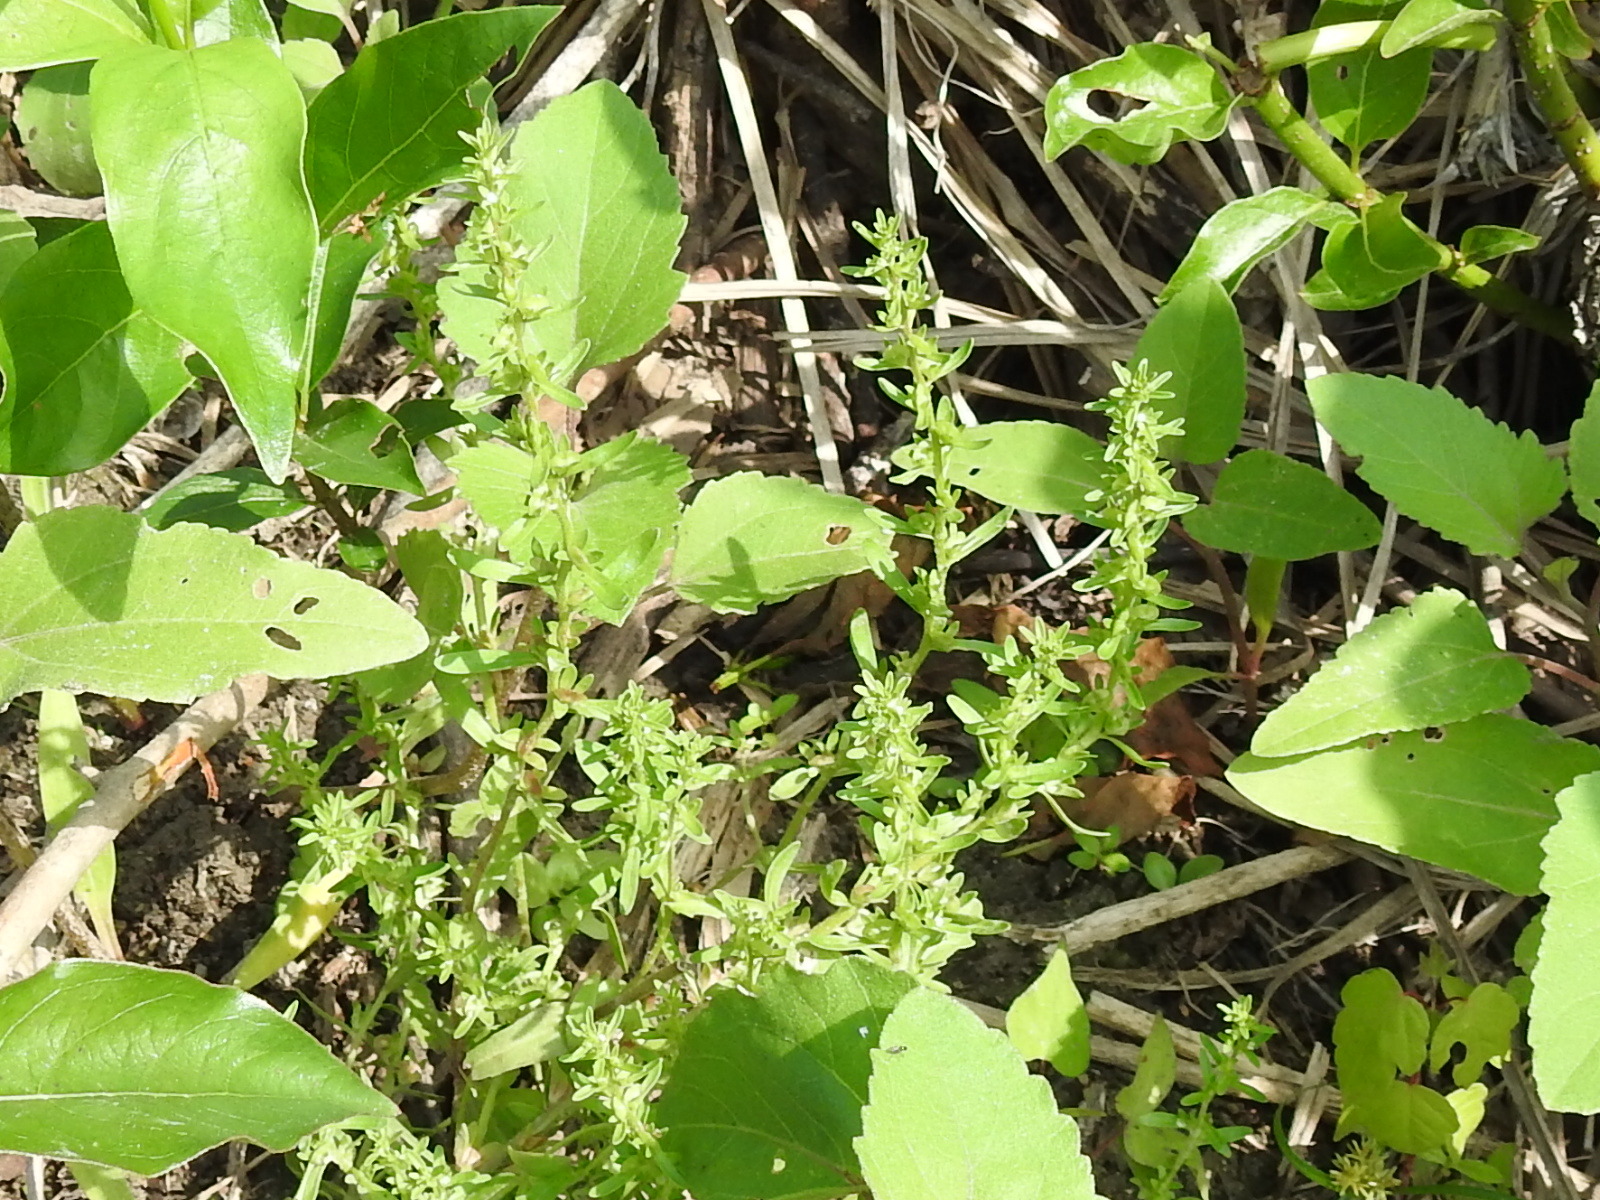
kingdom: Plantae
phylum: Tracheophyta
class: Magnoliopsida
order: Lamiales
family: Plantaginaceae
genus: Veronica
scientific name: Veronica peregrina
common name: Neckweed
